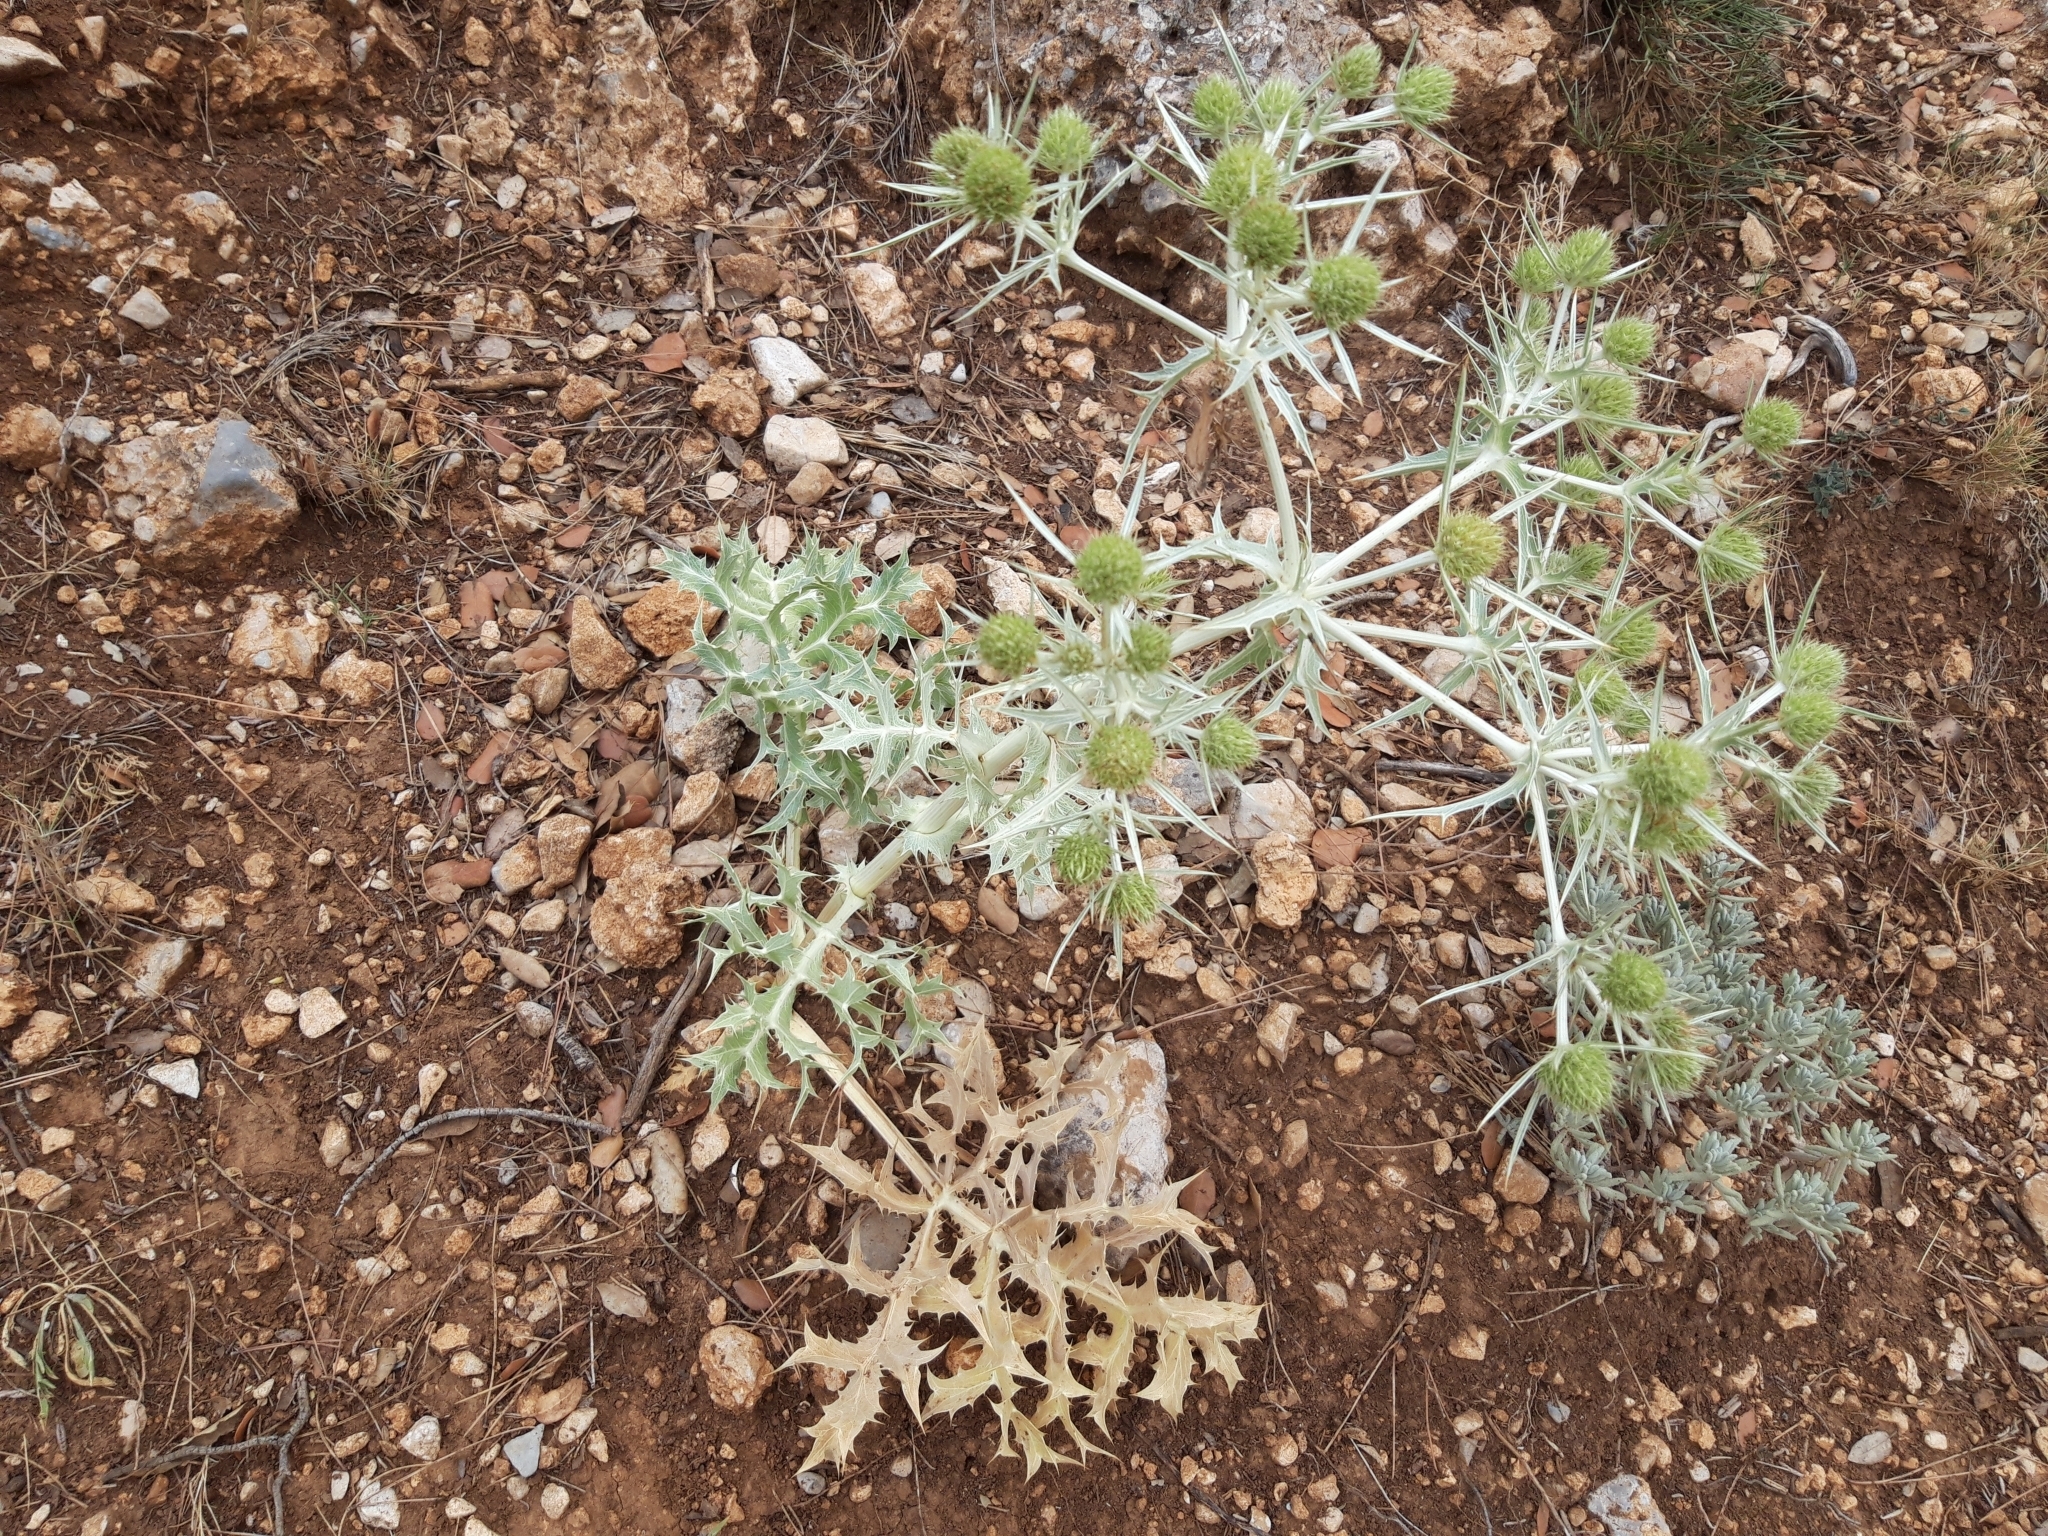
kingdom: Plantae
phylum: Tracheophyta
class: Magnoliopsida
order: Apiales
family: Apiaceae
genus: Eryngium
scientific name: Eryngium campestre
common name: Field eryngo
